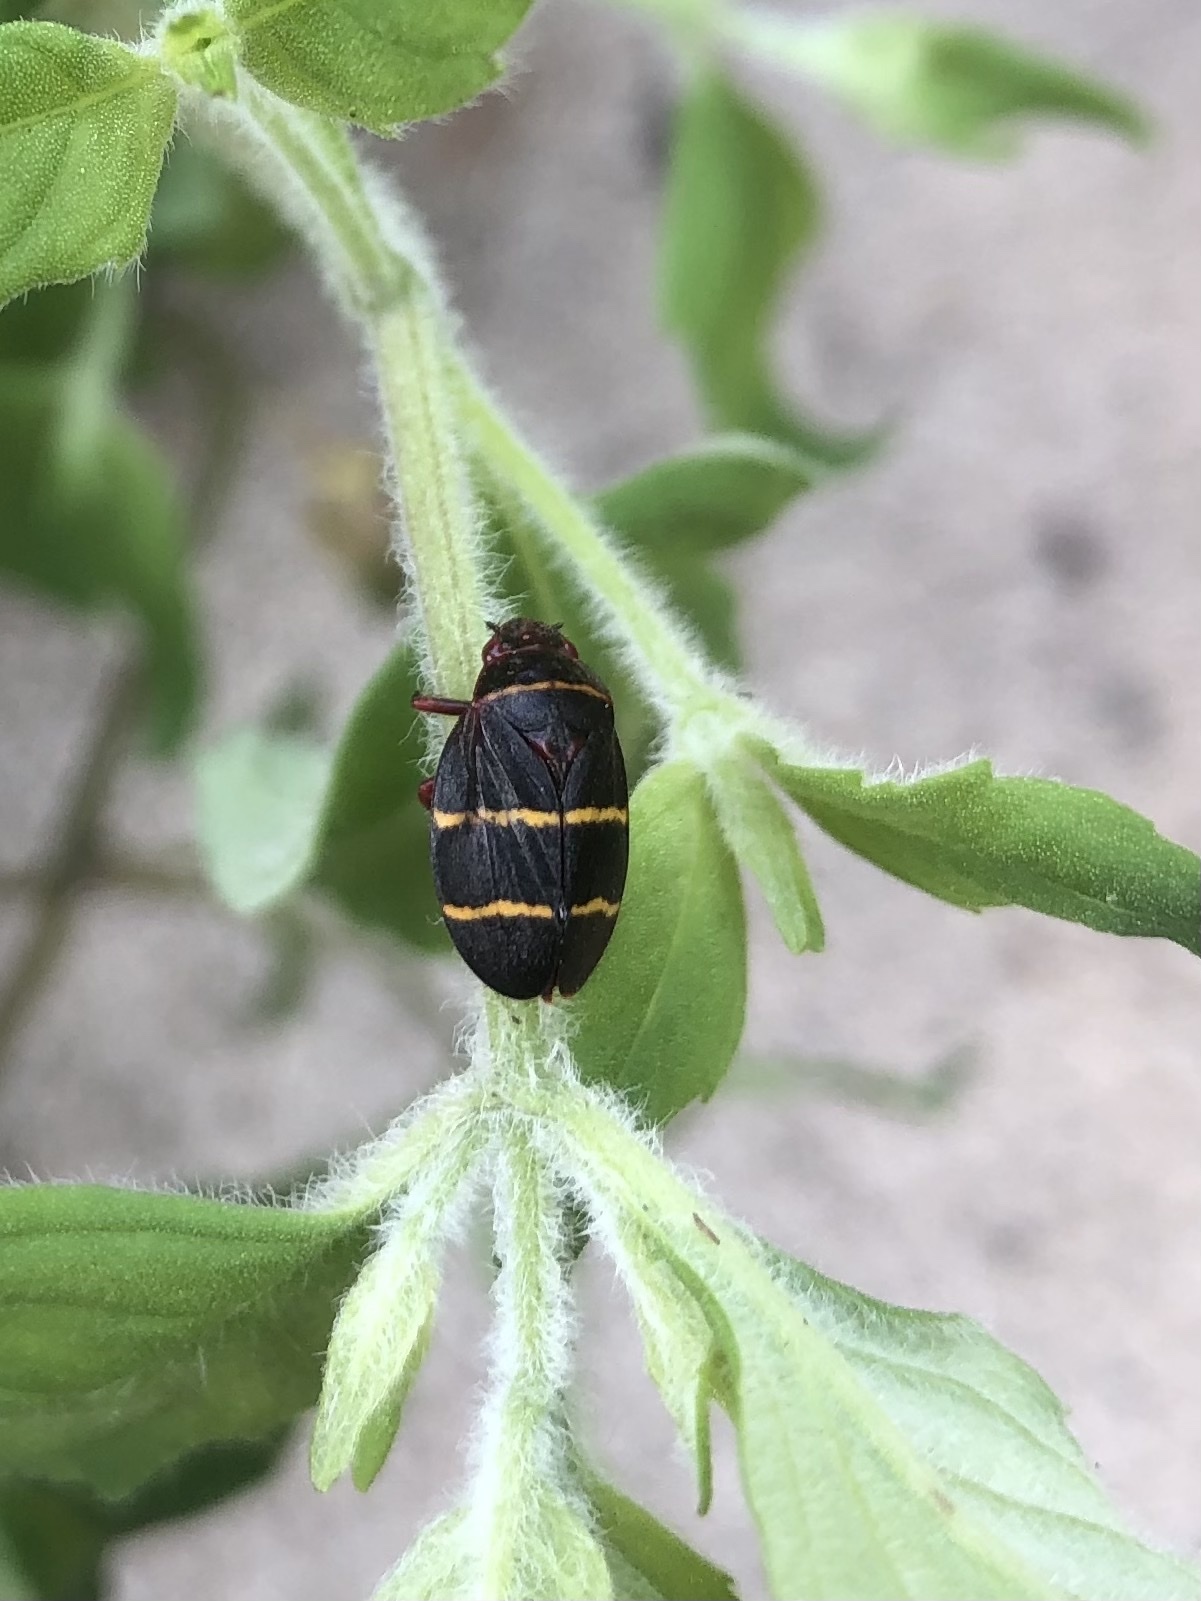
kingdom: Animalia
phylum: Arthropoda
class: Insecta
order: Hemiptera
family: Cercopidae
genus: Prosapia
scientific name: Prosapia bicincta
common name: Twolined spittlebug
